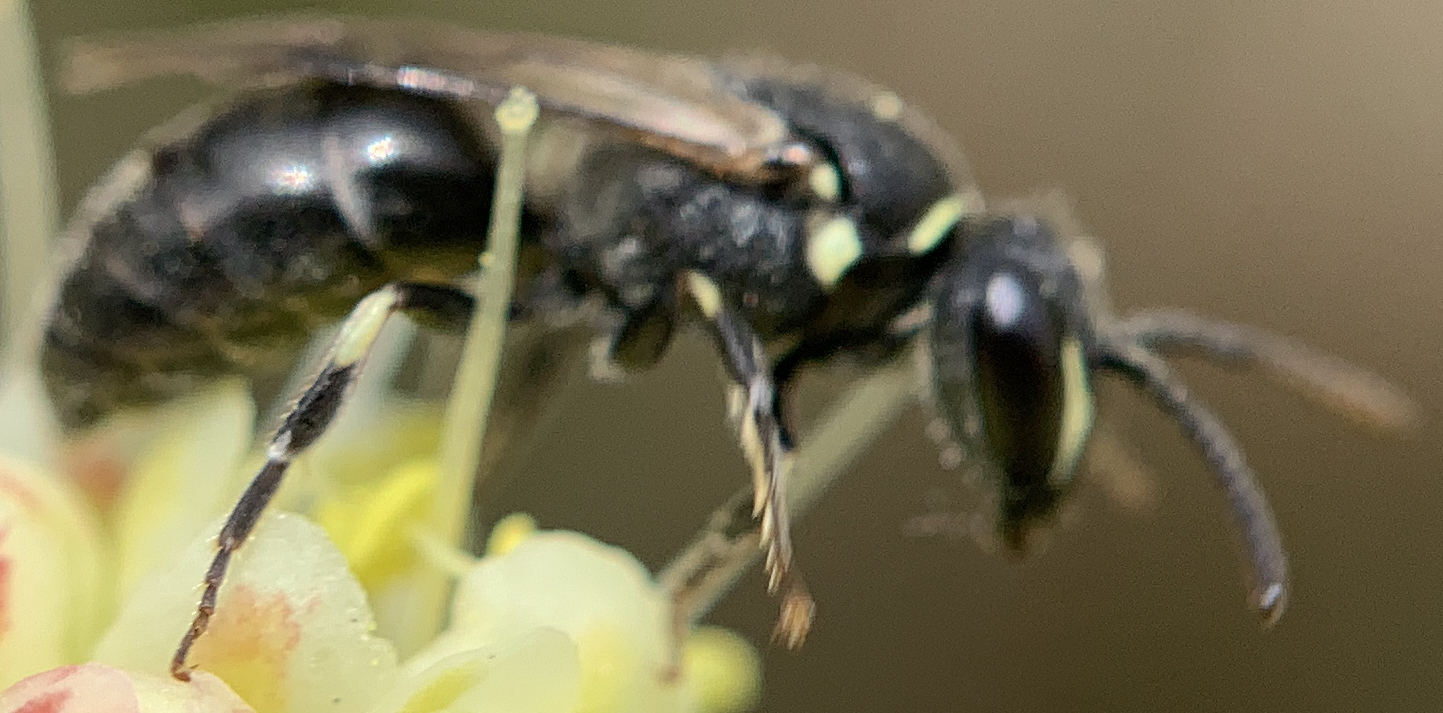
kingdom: Animalia
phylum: Arthropoda
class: Insecta
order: Hymenoptera
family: Colletidae
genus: Hylaeus
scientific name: Hylaeus
